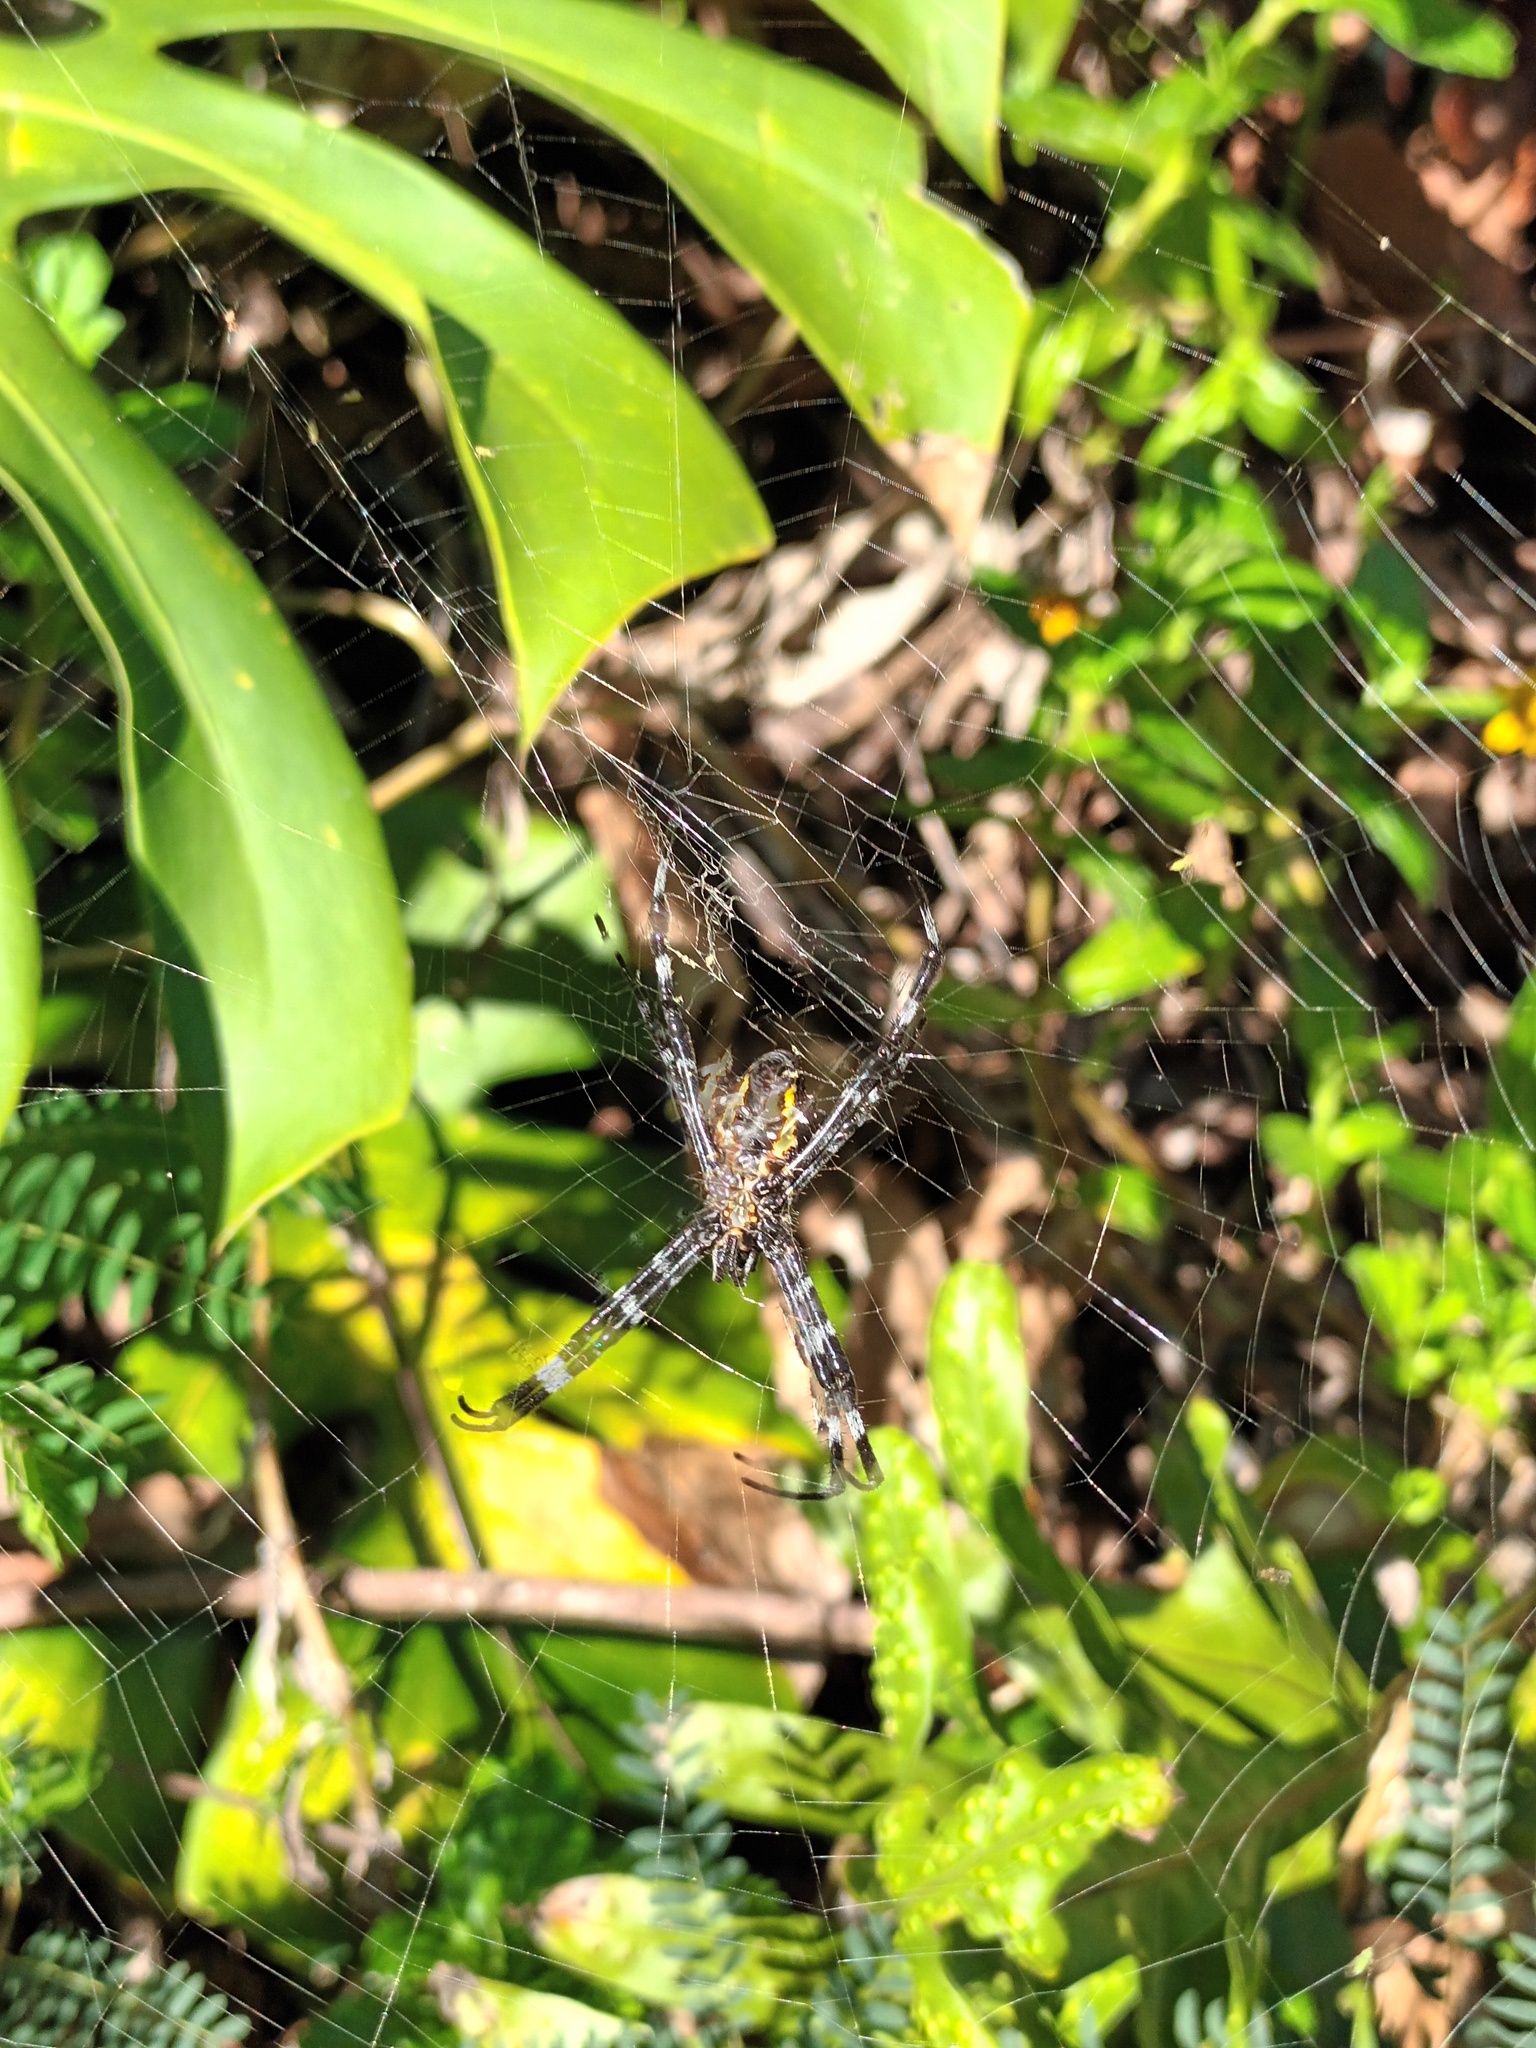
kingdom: Animalia
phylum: Arthropoda
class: Arachnida
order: Araneae
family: Araneidae
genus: Argiope
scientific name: Argiope appensa
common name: Garden spider
